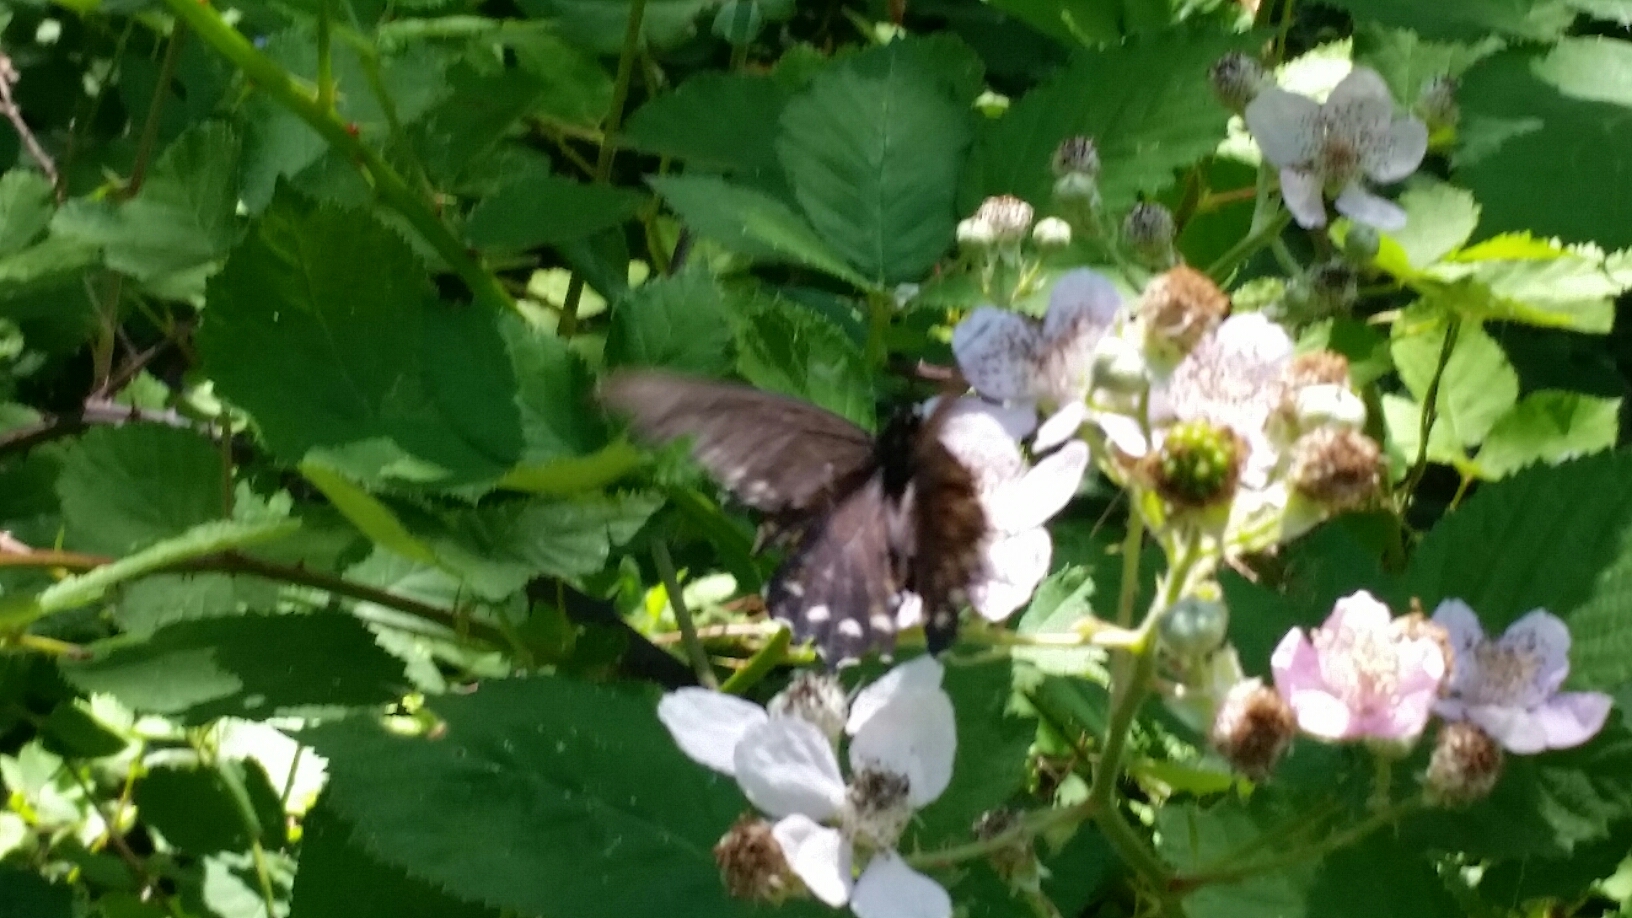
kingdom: Animalia
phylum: Arthropoda
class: Insecta
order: Lepidoptera
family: Papilionidae
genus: Battus
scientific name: Battus philenor
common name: Pipevine swallowtail
